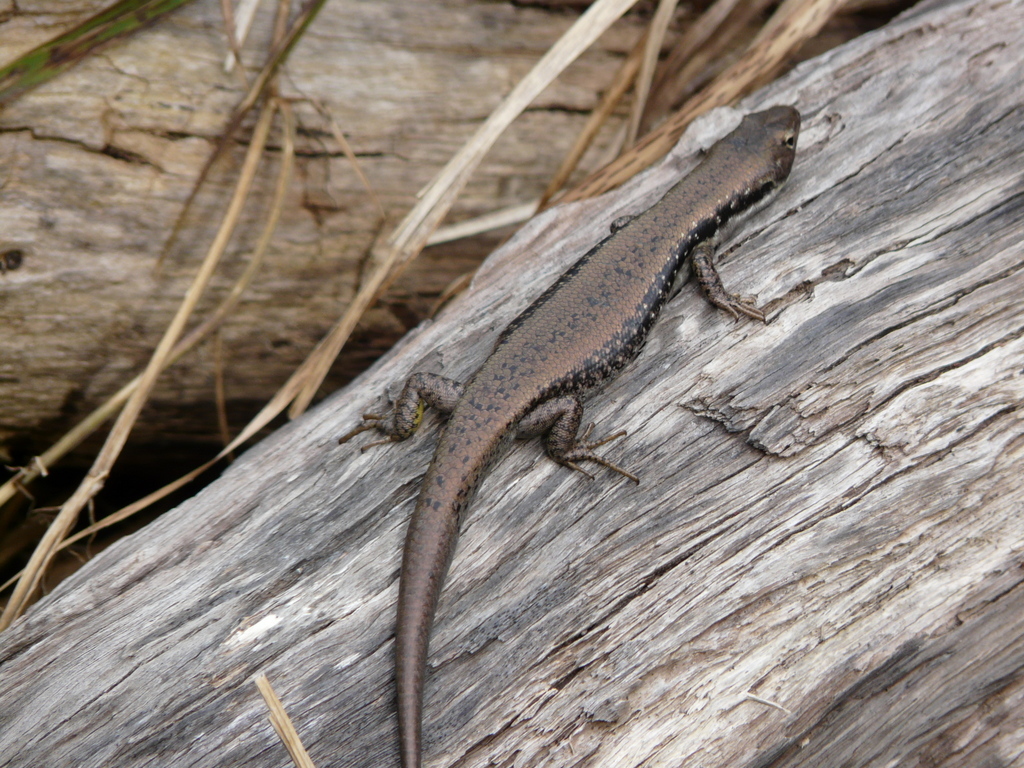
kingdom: Animalia
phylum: Chordata
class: Squamata
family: Scincidae
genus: Eulamprus
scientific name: Eulamprus tympanum
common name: Cool-temperate water-skink
